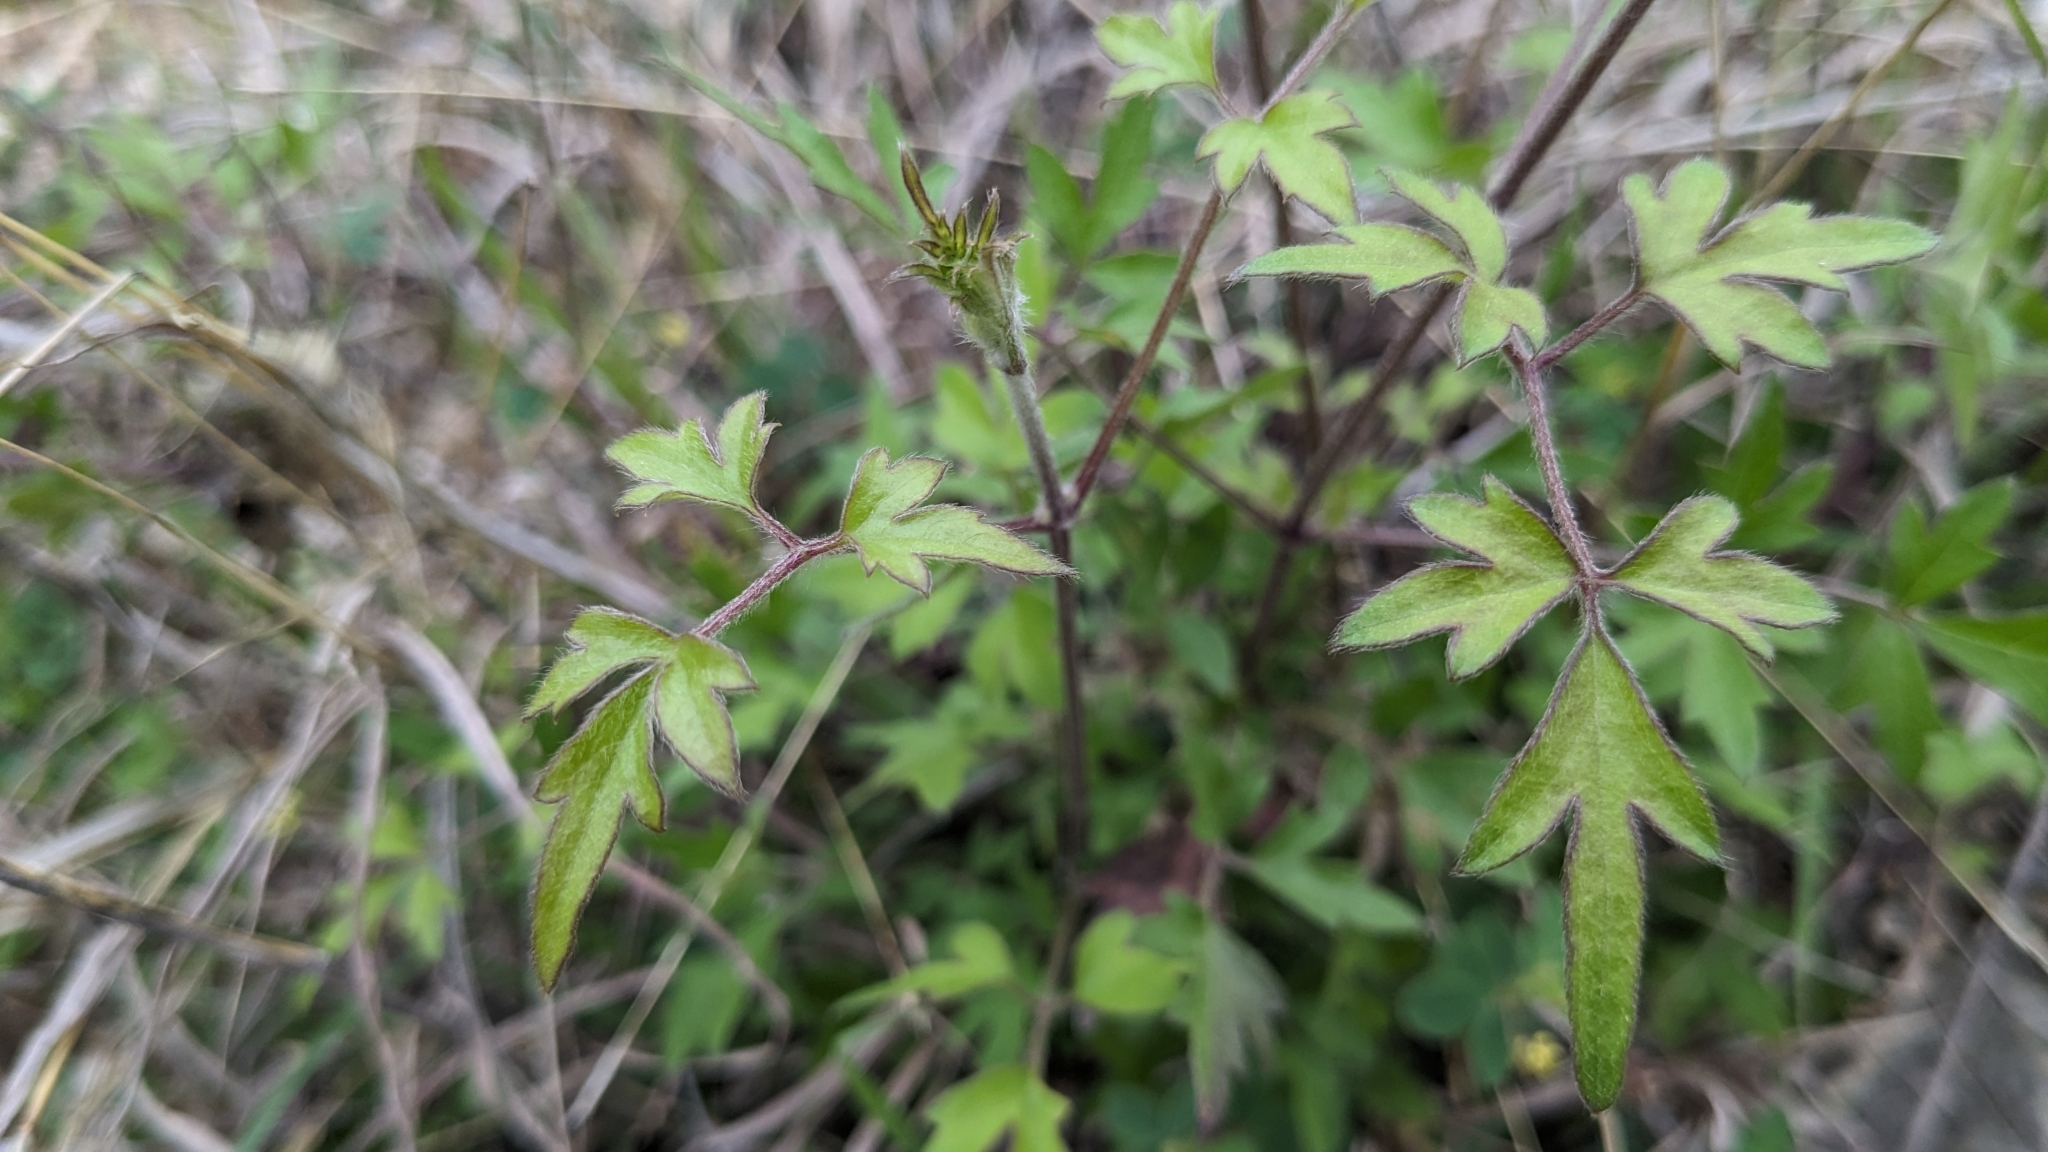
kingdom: Plantae
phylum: Tracheophyta
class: Magnoliopsida
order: Ranunculales
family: Ranunculaceae
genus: Clematis
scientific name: Clematis drummondii
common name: Texas virgin's bower
